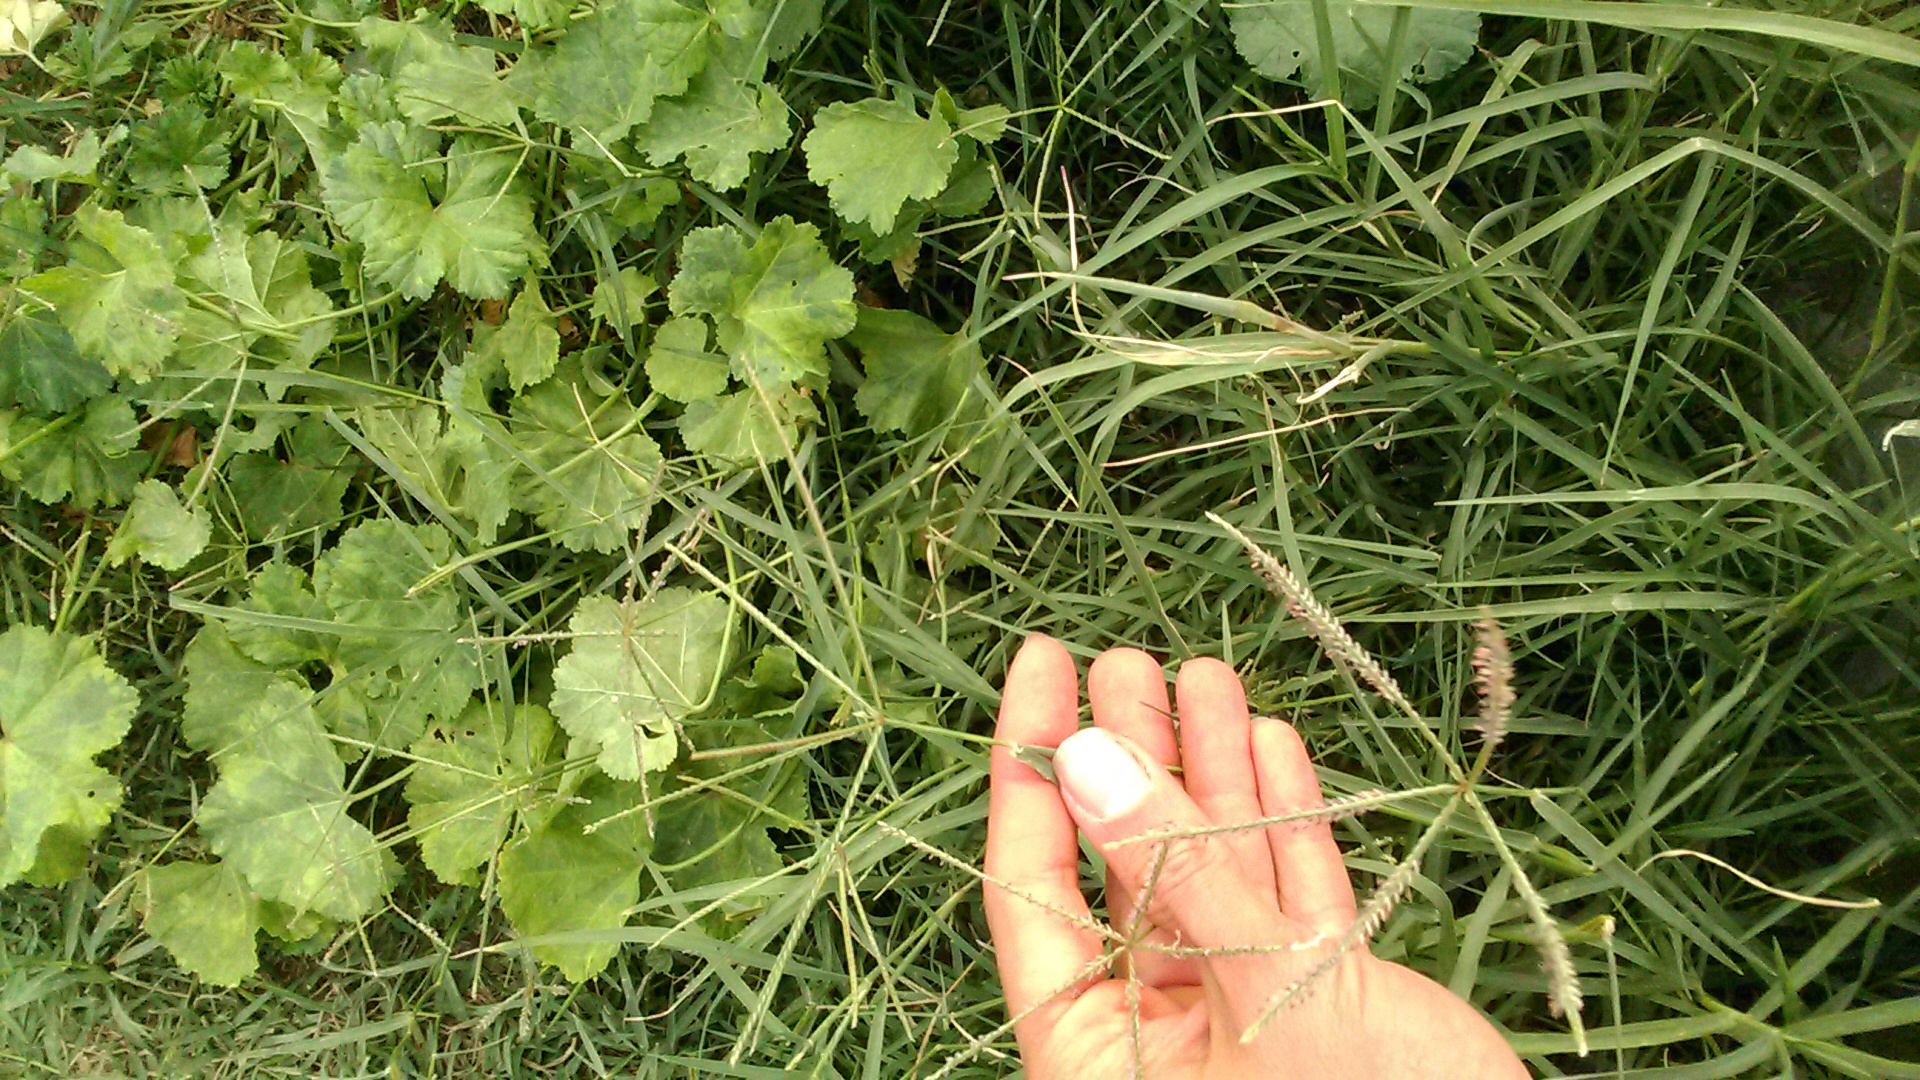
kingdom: Plantae
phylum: Tracheophyta
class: Liliopsida
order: Poales
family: Poaceae
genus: Cynodon
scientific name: Cynodon dactylon
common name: Bermuda grass
